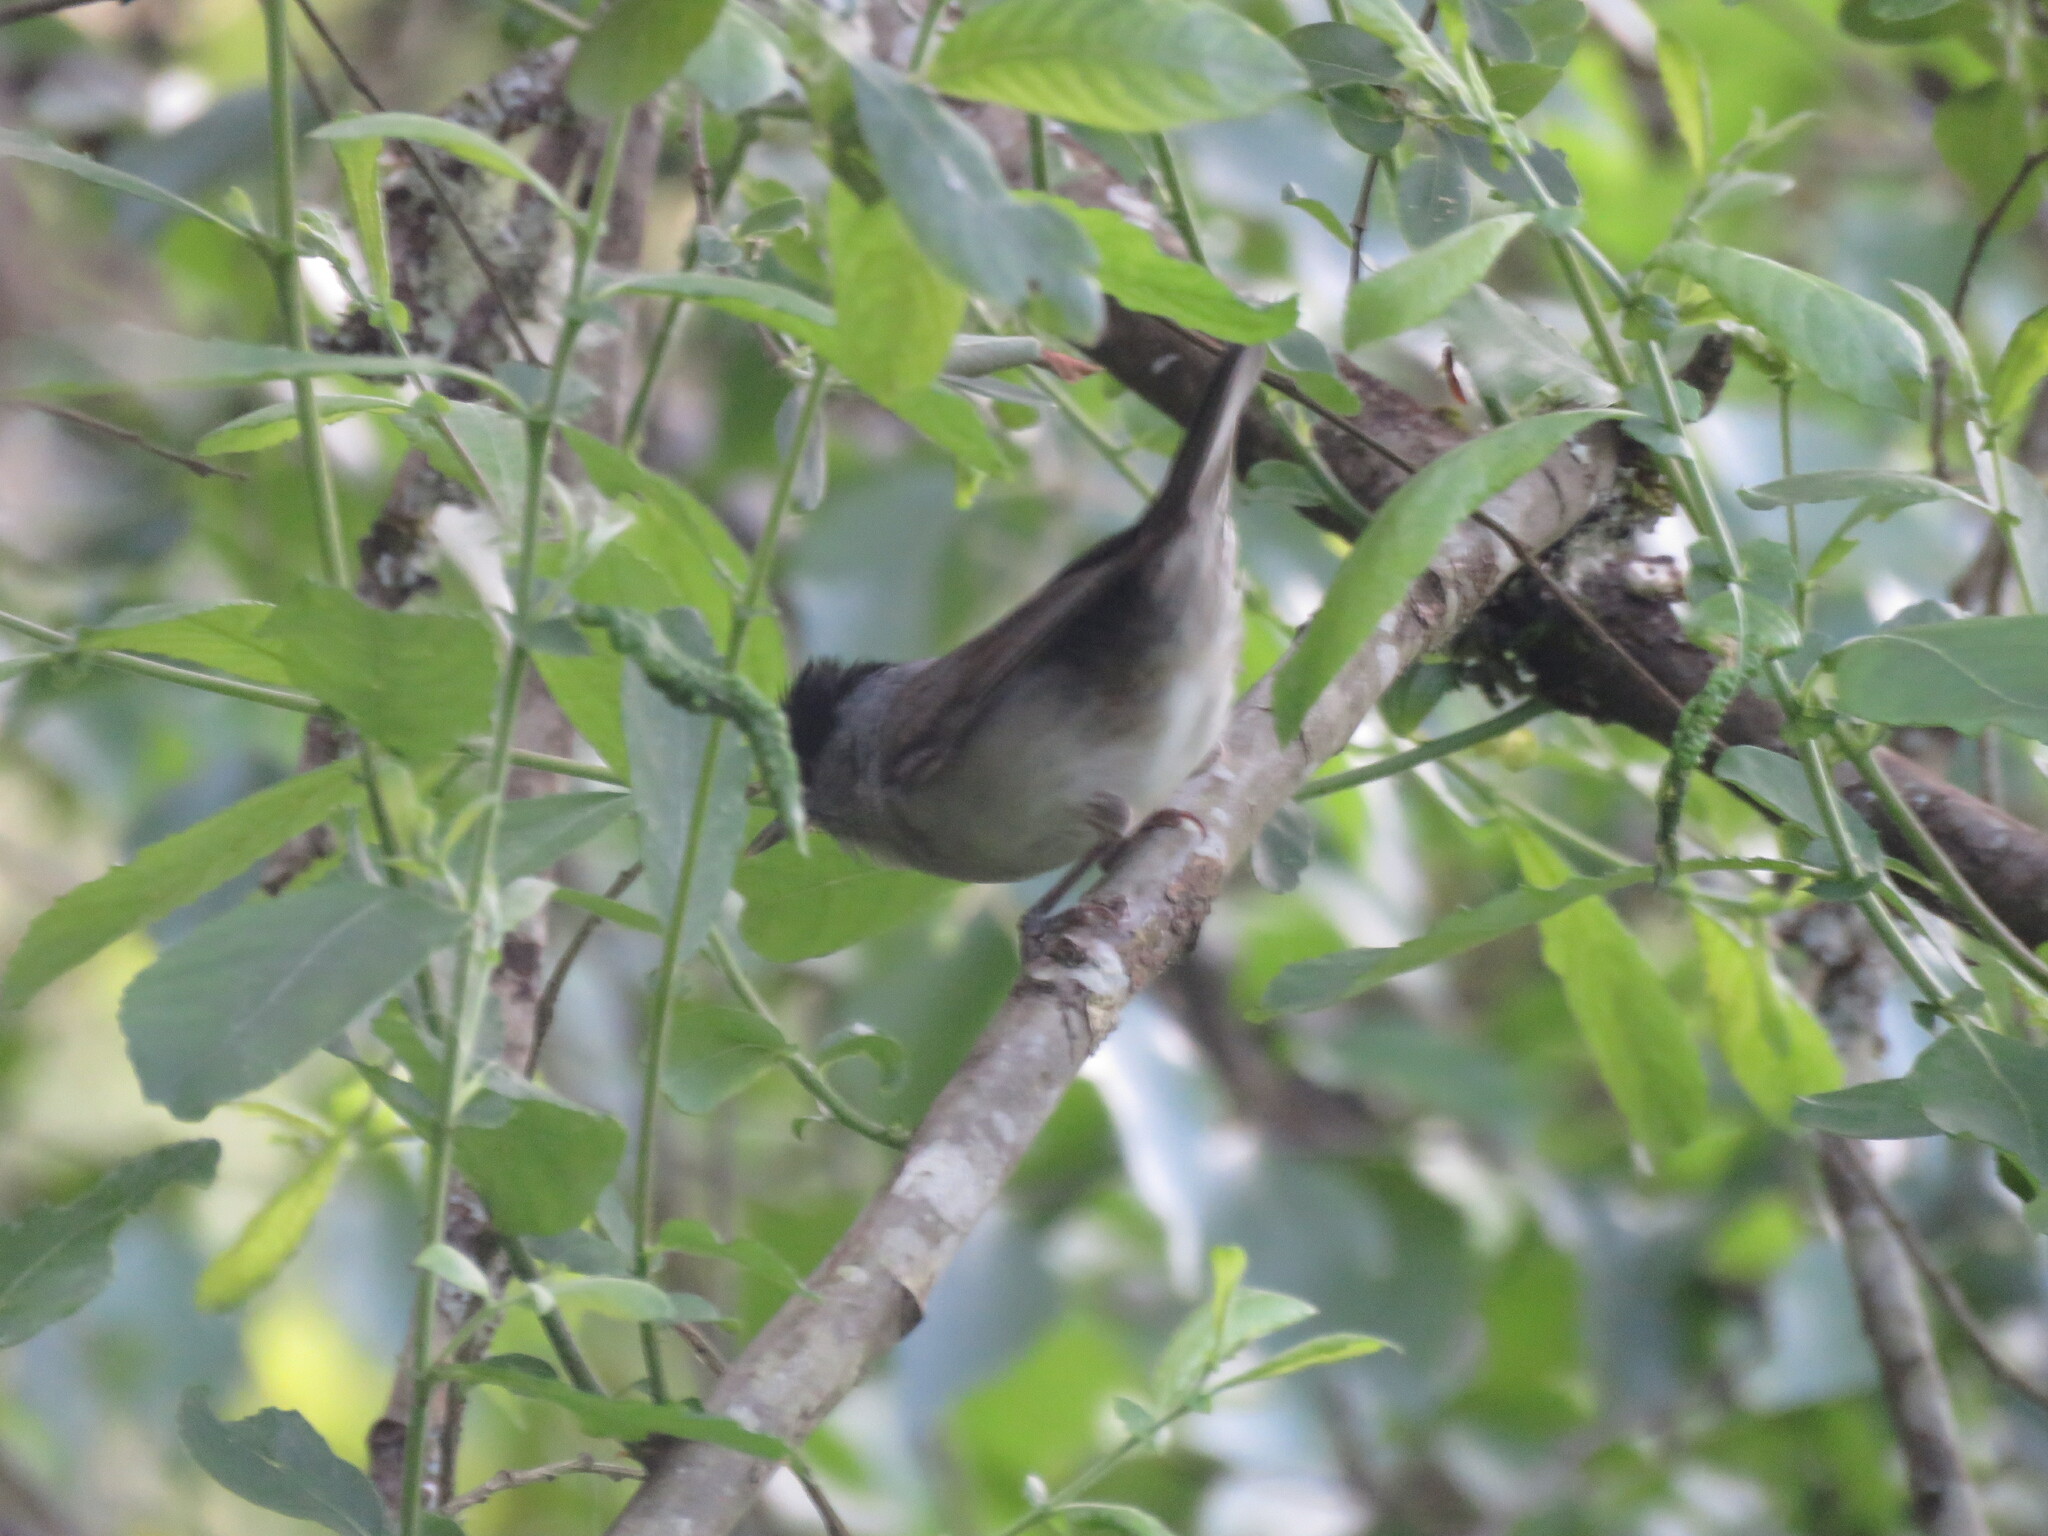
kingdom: Animalia
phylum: Chordata
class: Aves
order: Passeriformes
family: Sylviidae
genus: Sylvia
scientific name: Sylvia atricapilla
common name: Eurasian blackcap
